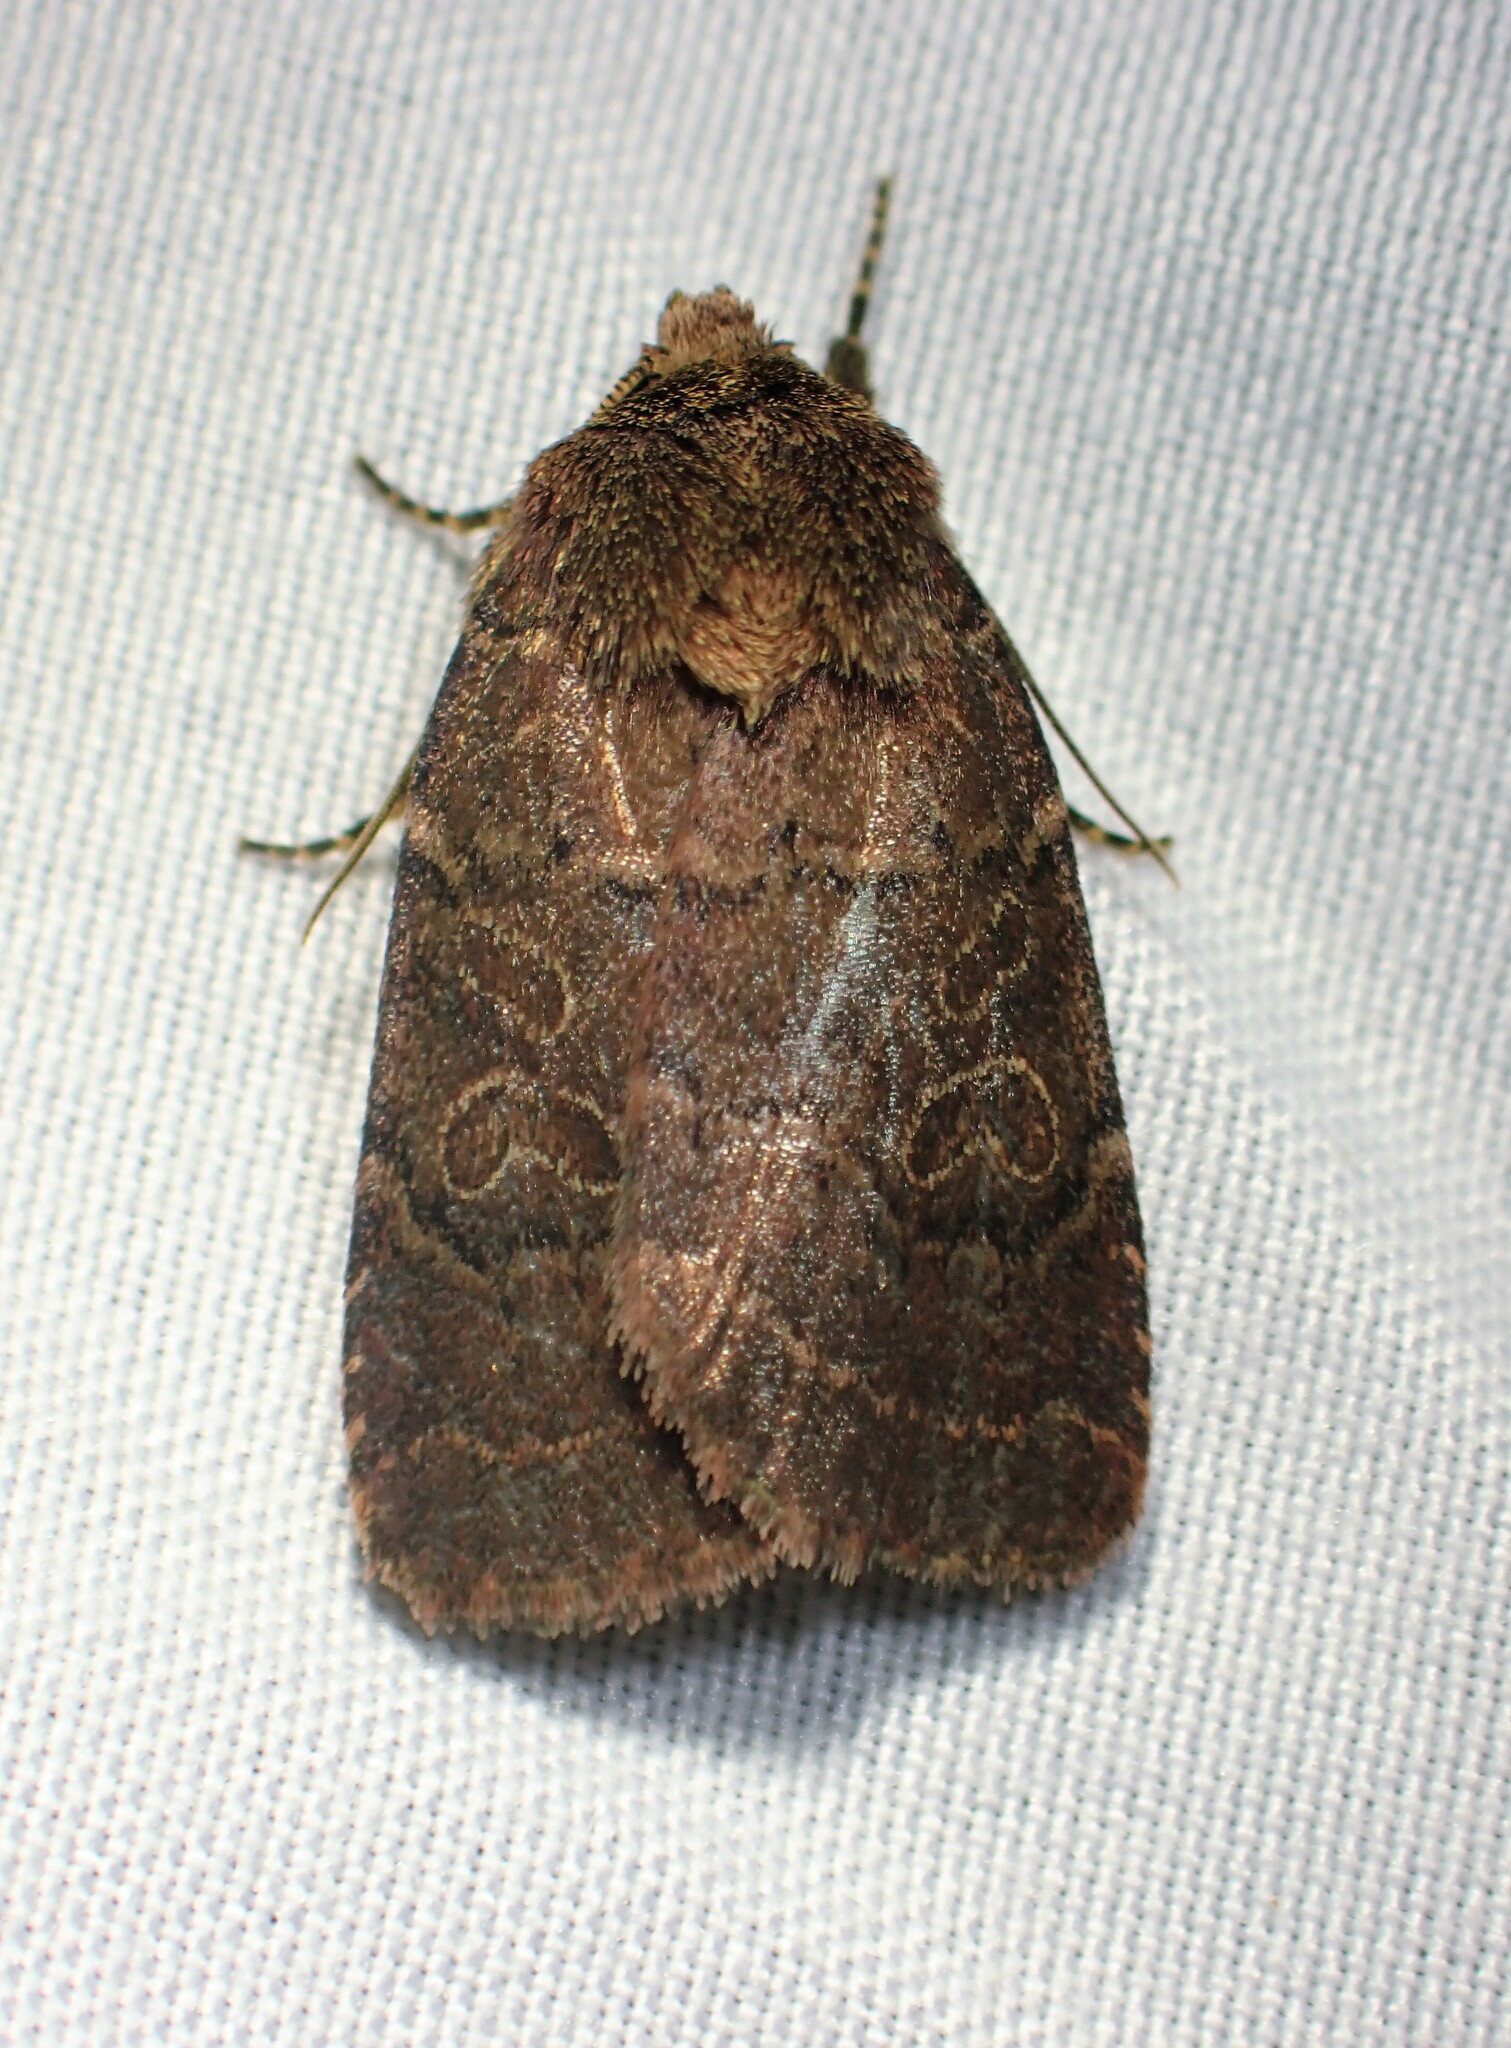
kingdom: Animalia
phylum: Arthropoda
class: Insecta
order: Lepidoptera
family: Noctuidae
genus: Orthodes
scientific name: Orthodes cynica
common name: Cynical quaker
